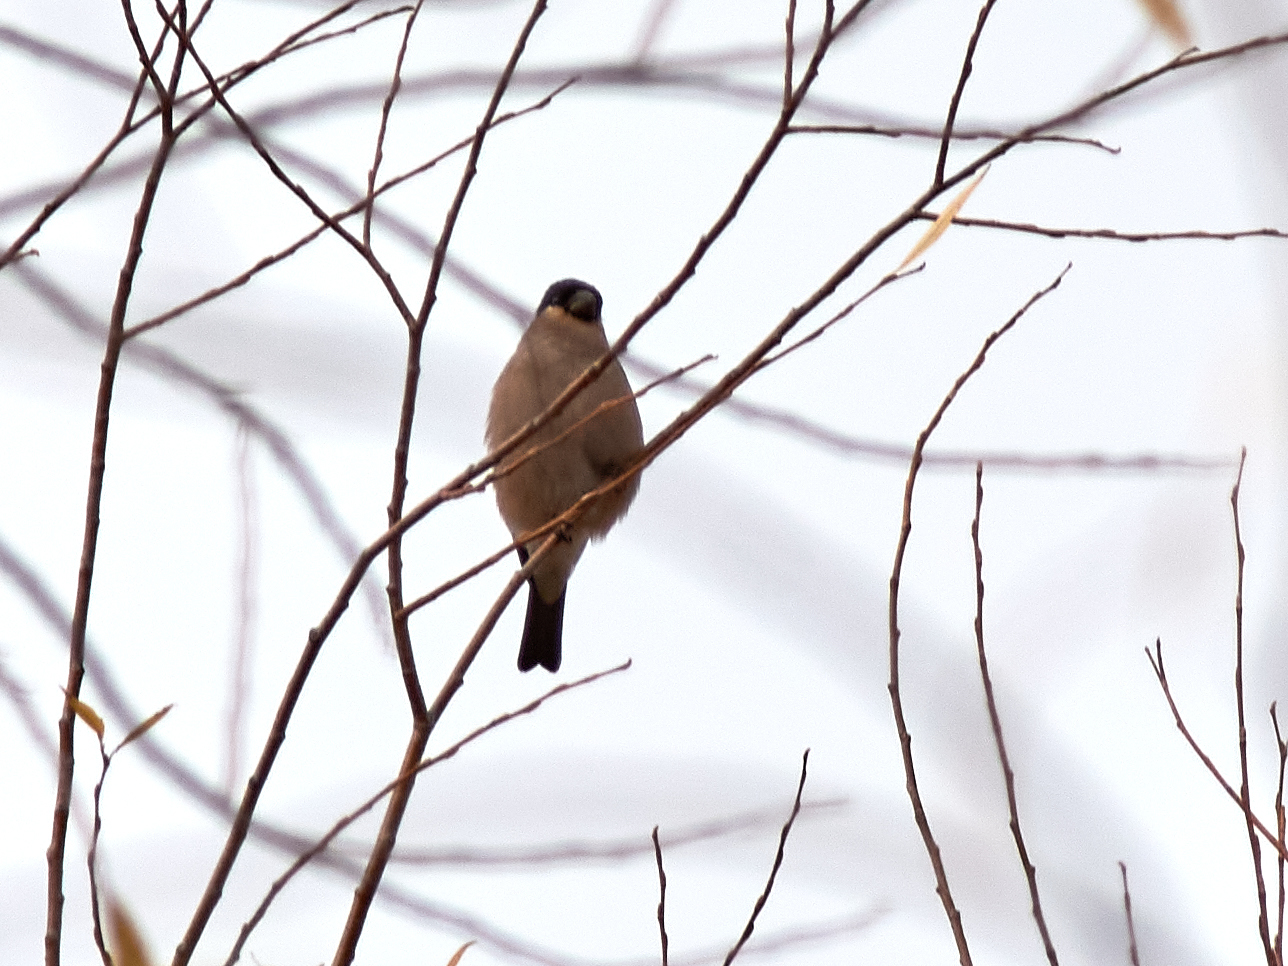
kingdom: Animalia
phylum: Chordata
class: Aves
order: Passeriformes
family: Fringillidae
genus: Pyrrhula
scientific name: Pyrrhula pyrrhula
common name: Eurasian bullfinch
